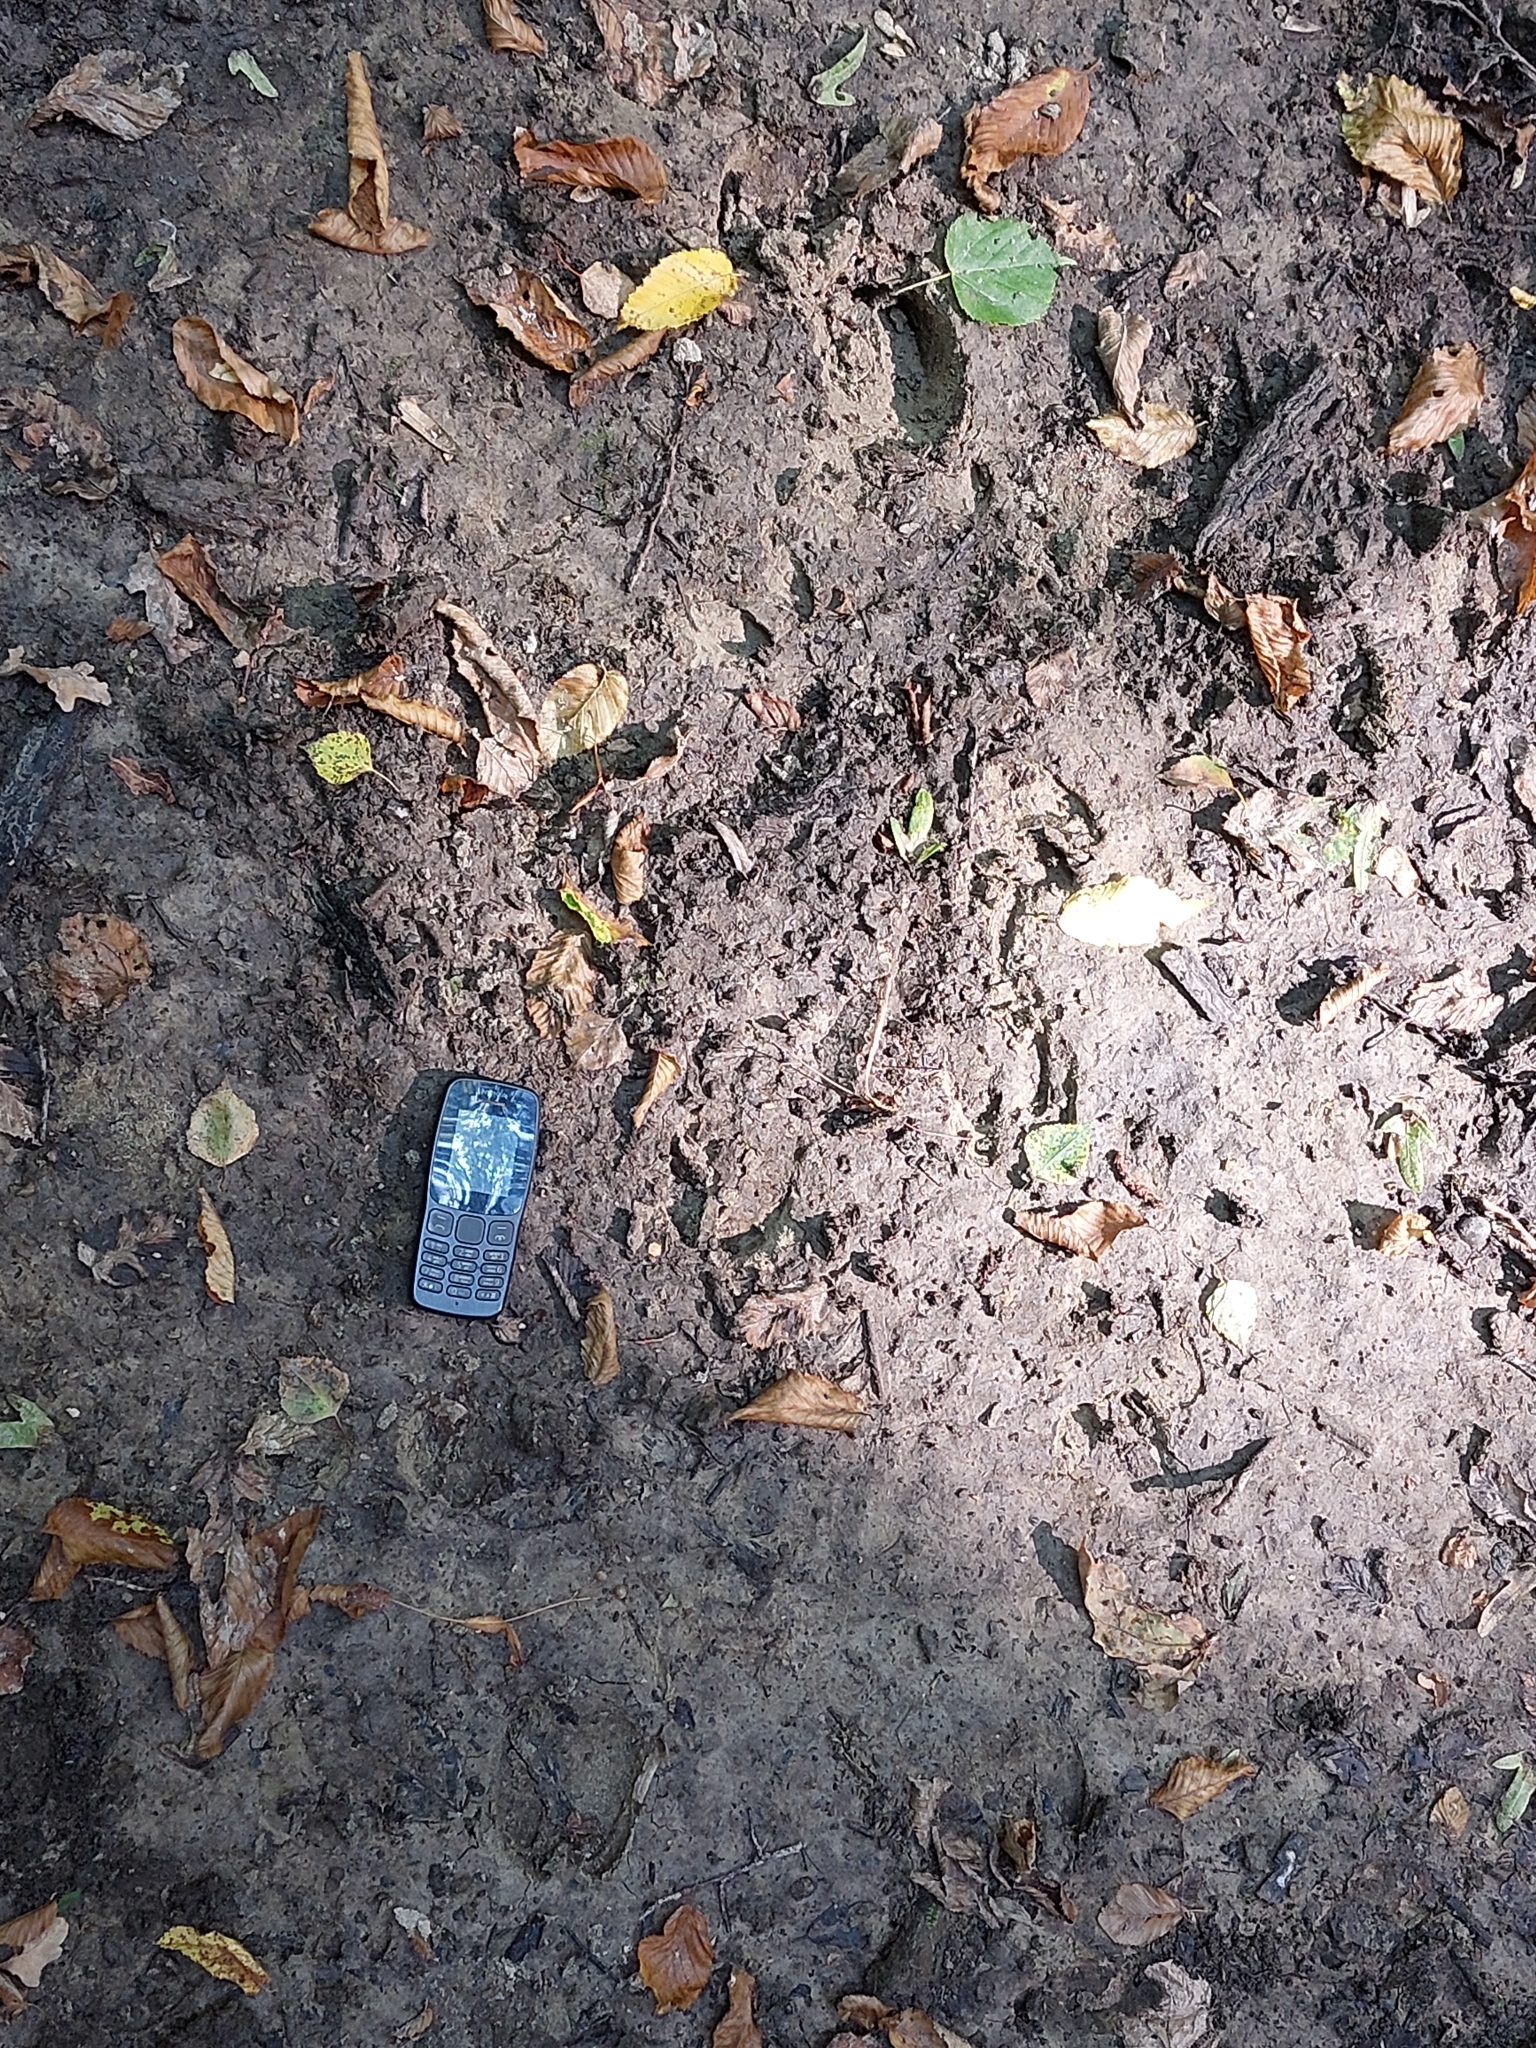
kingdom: Animalia
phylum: Chordata
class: Mammalia
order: Artiodactyla
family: Suidae
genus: Sus
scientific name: Sus scrofa
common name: Wild boar
